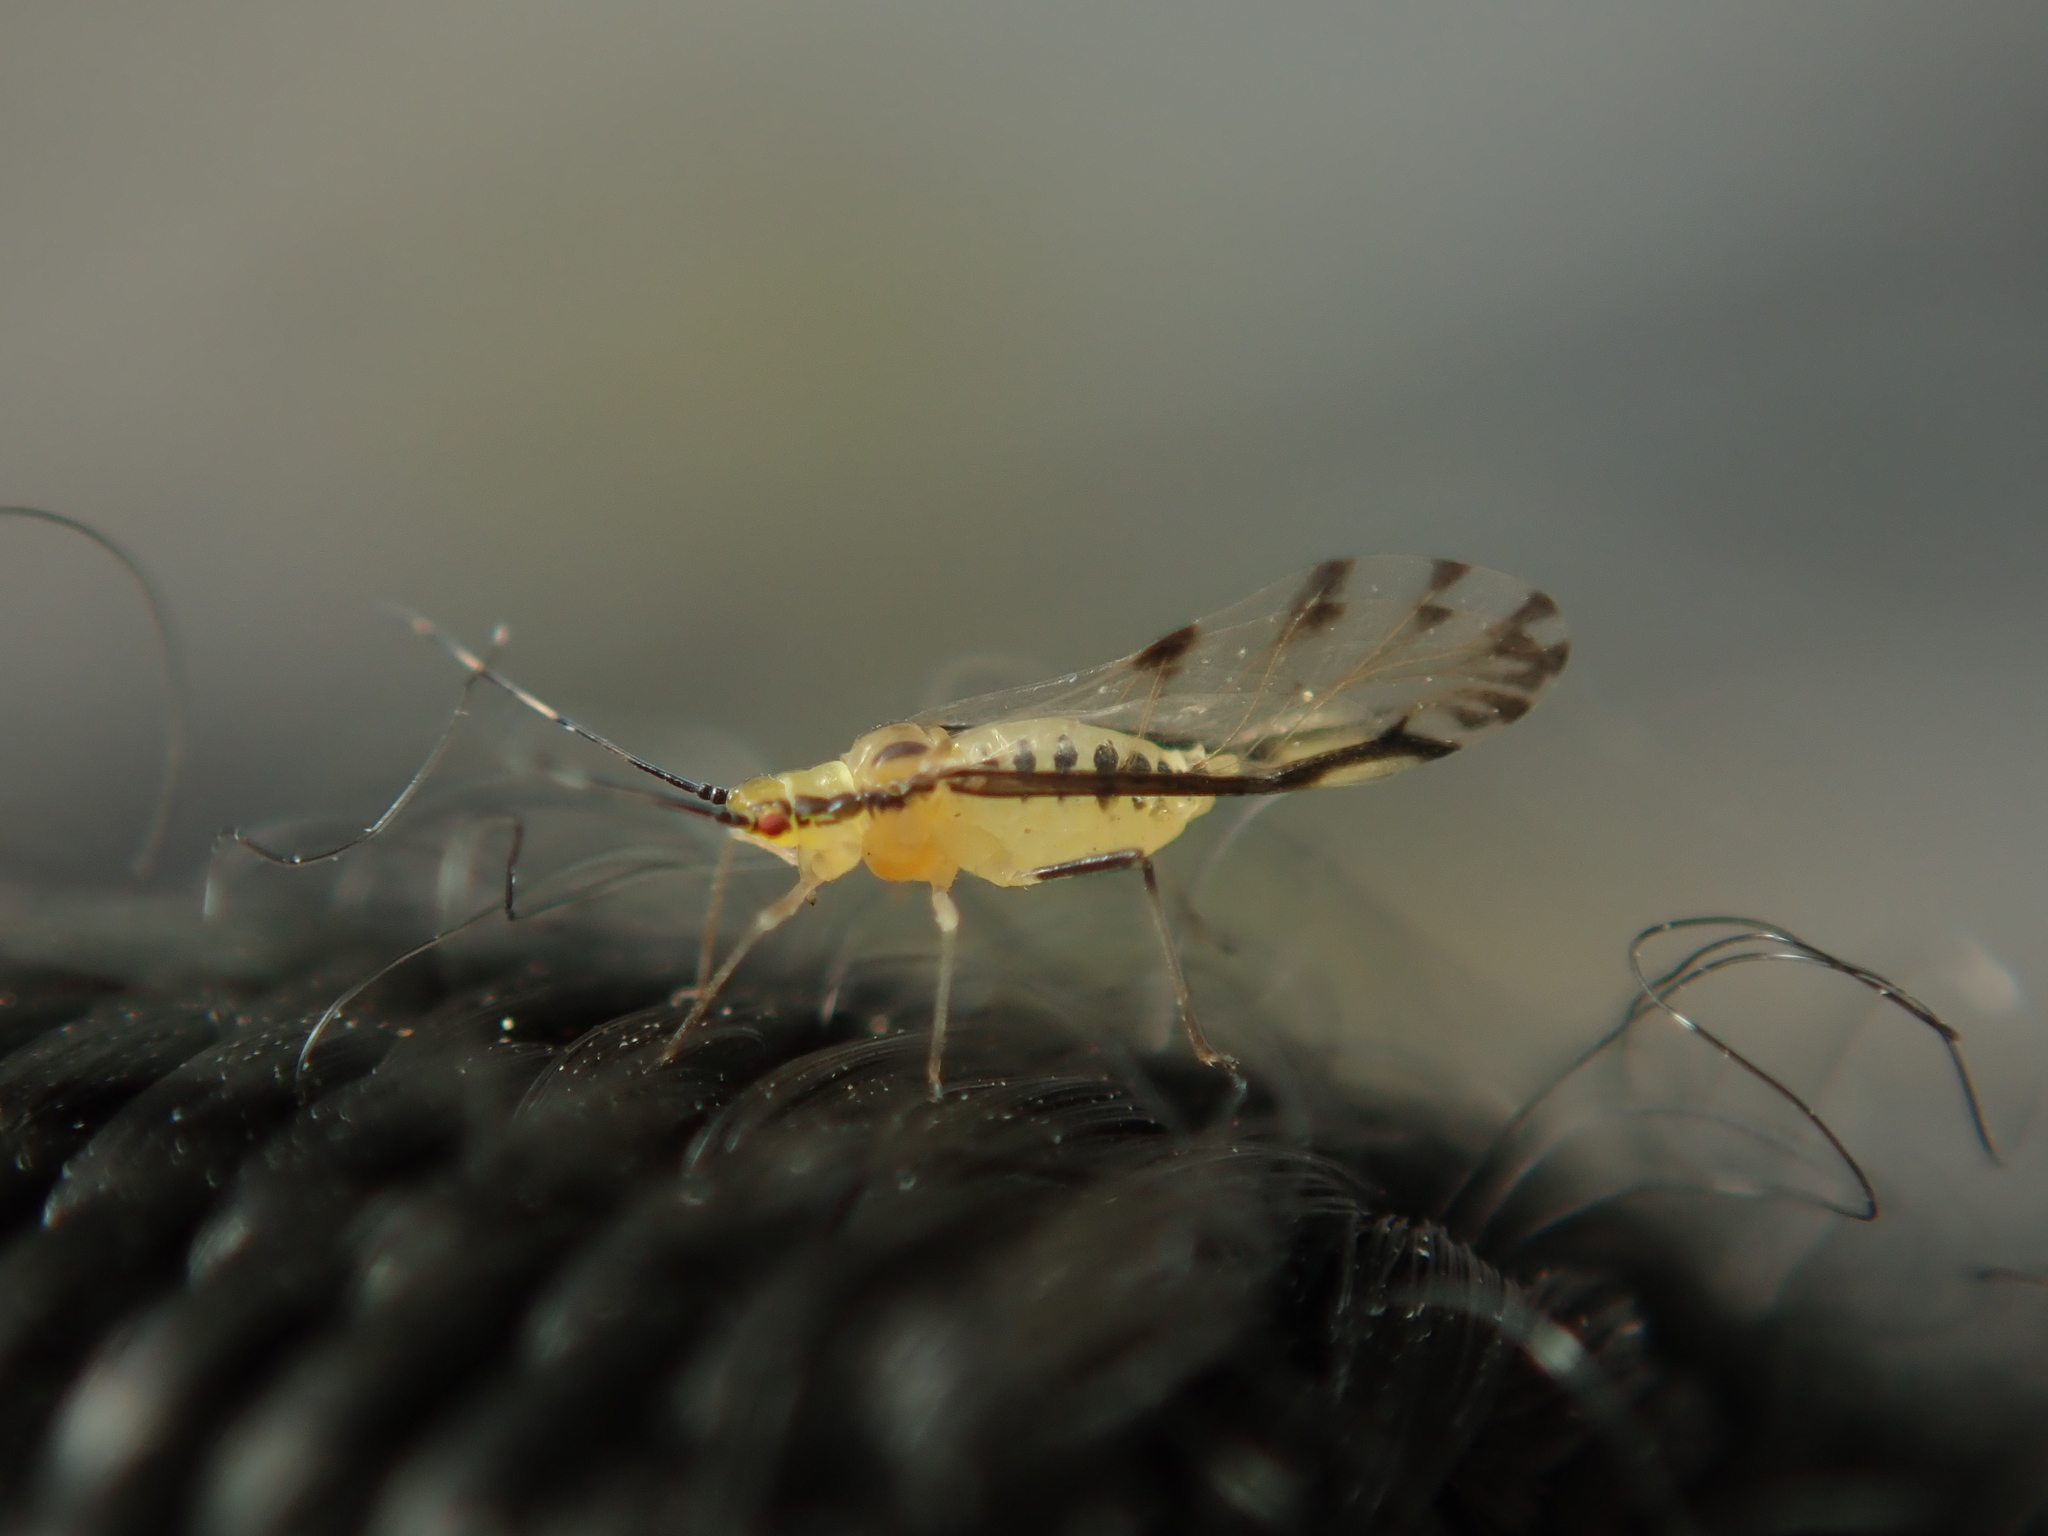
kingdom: Animalia
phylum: Arthropoda
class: Insecta
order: Hemiptera
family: Aphididae
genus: Eucallipterus
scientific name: Eucallipterus tiliae
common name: Aphid
